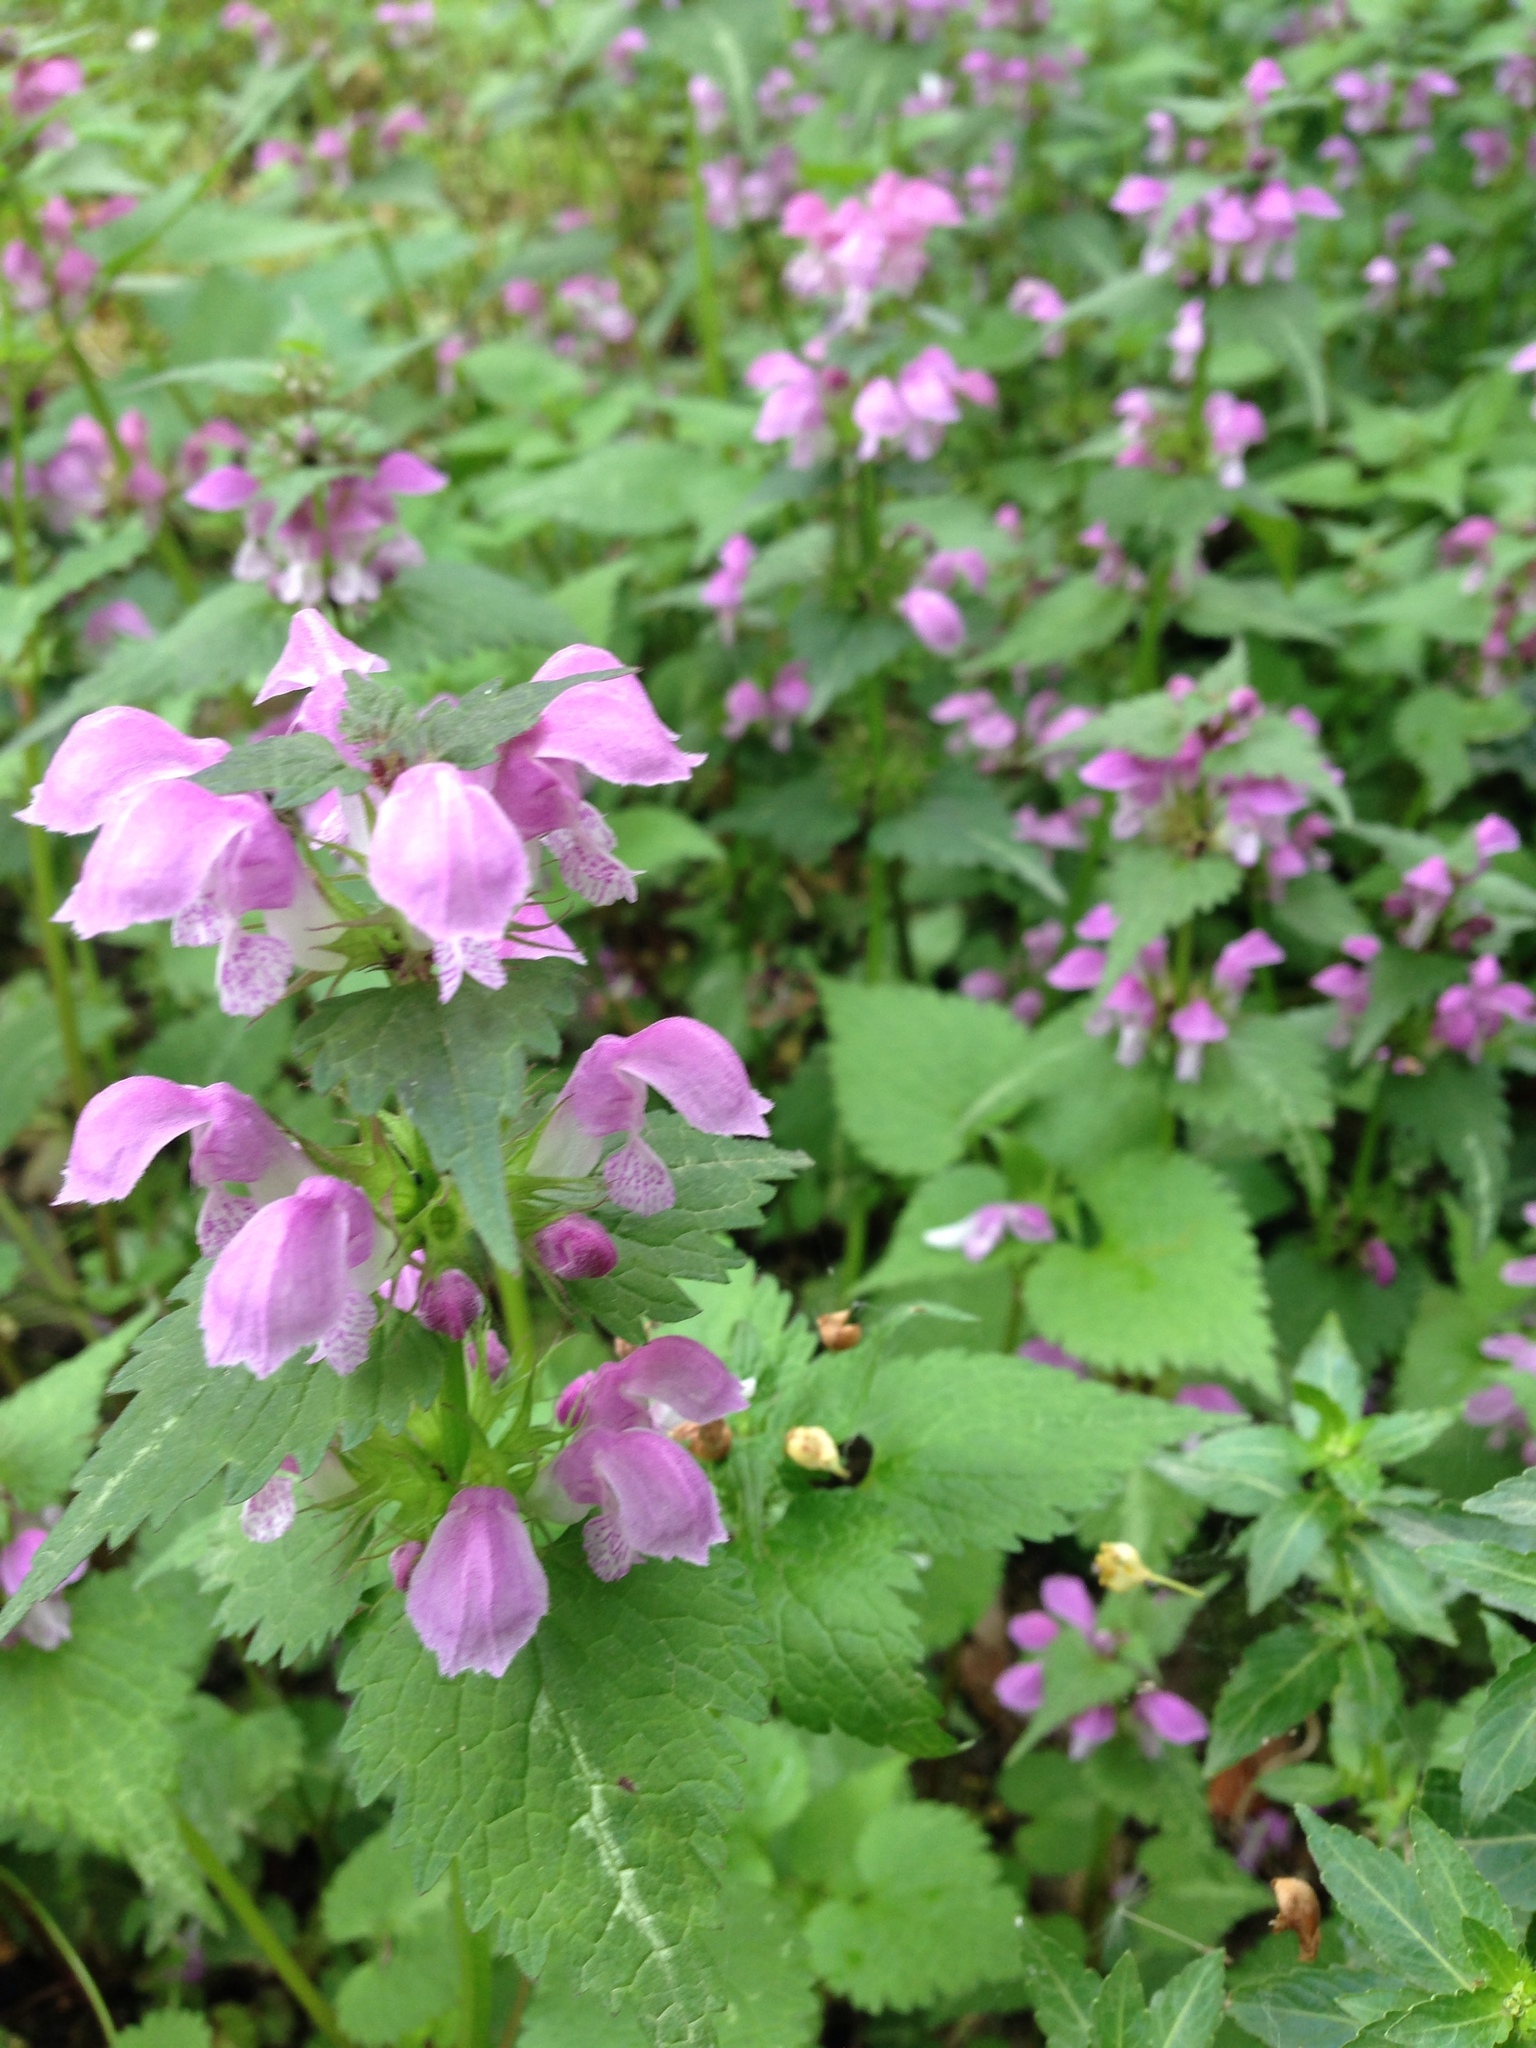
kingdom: Plantae
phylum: Tracheophyta
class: Magnoliopsida
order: Lamiales
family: Lamiaceae
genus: Lamium
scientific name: Lamium maculatum
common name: Spotted dead-nettle
